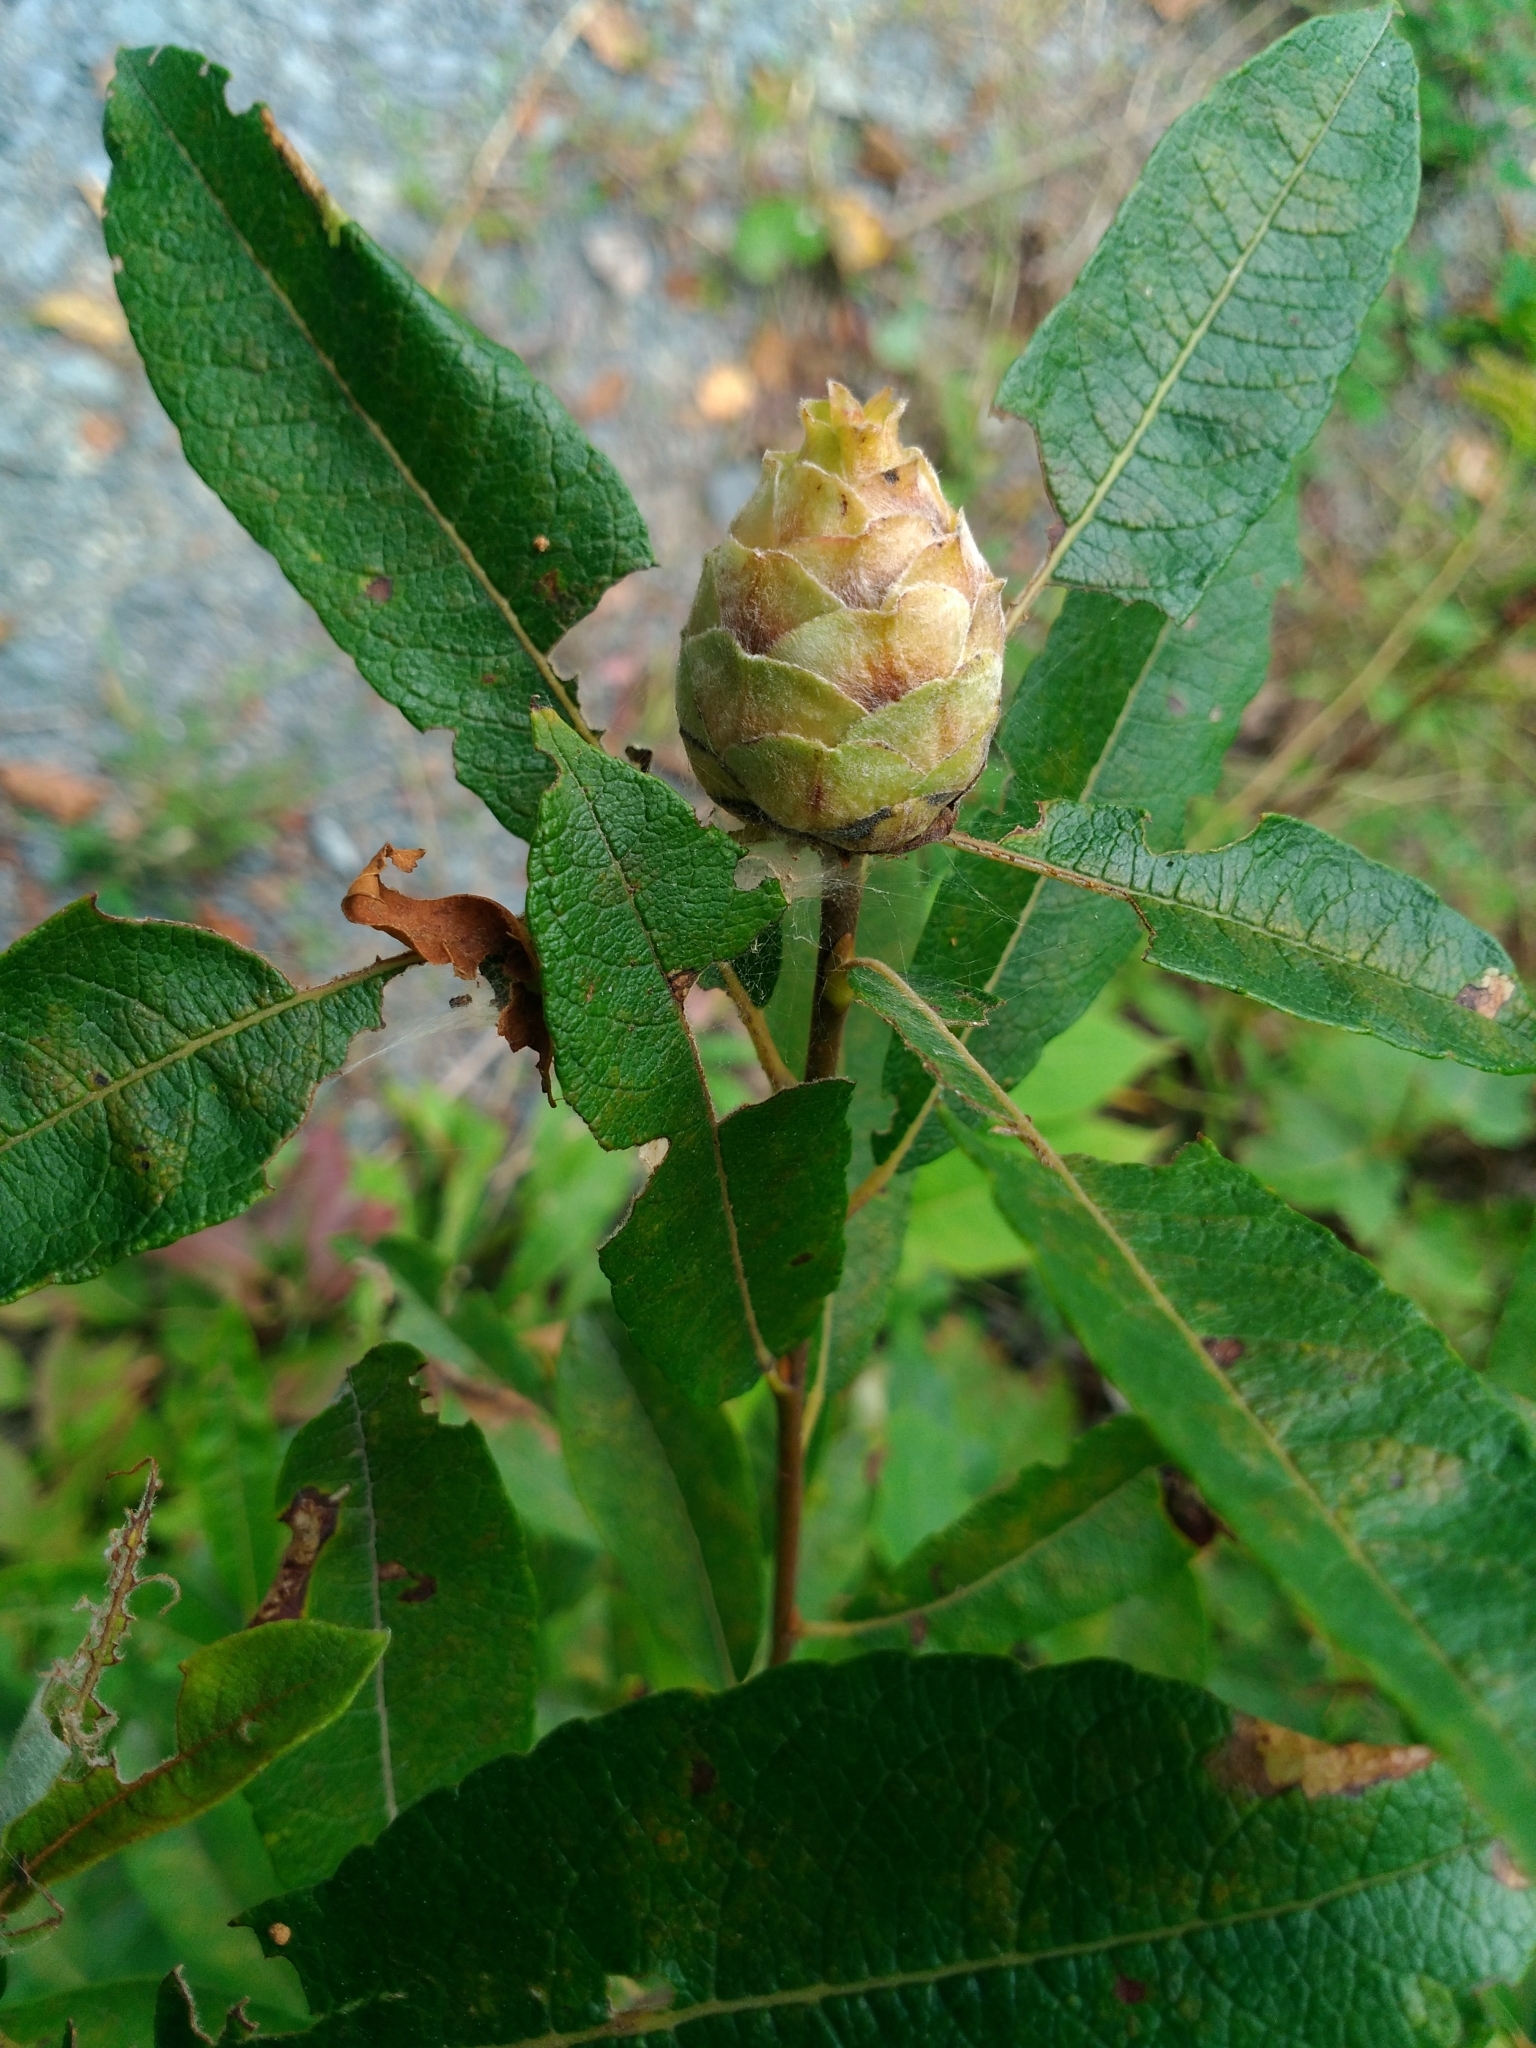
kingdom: Plantae
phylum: Tracheophyta
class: Magnoliopsida
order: Malpighiales
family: Salicaceae
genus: Salix
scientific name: Salix humilis
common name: Prairie willow
